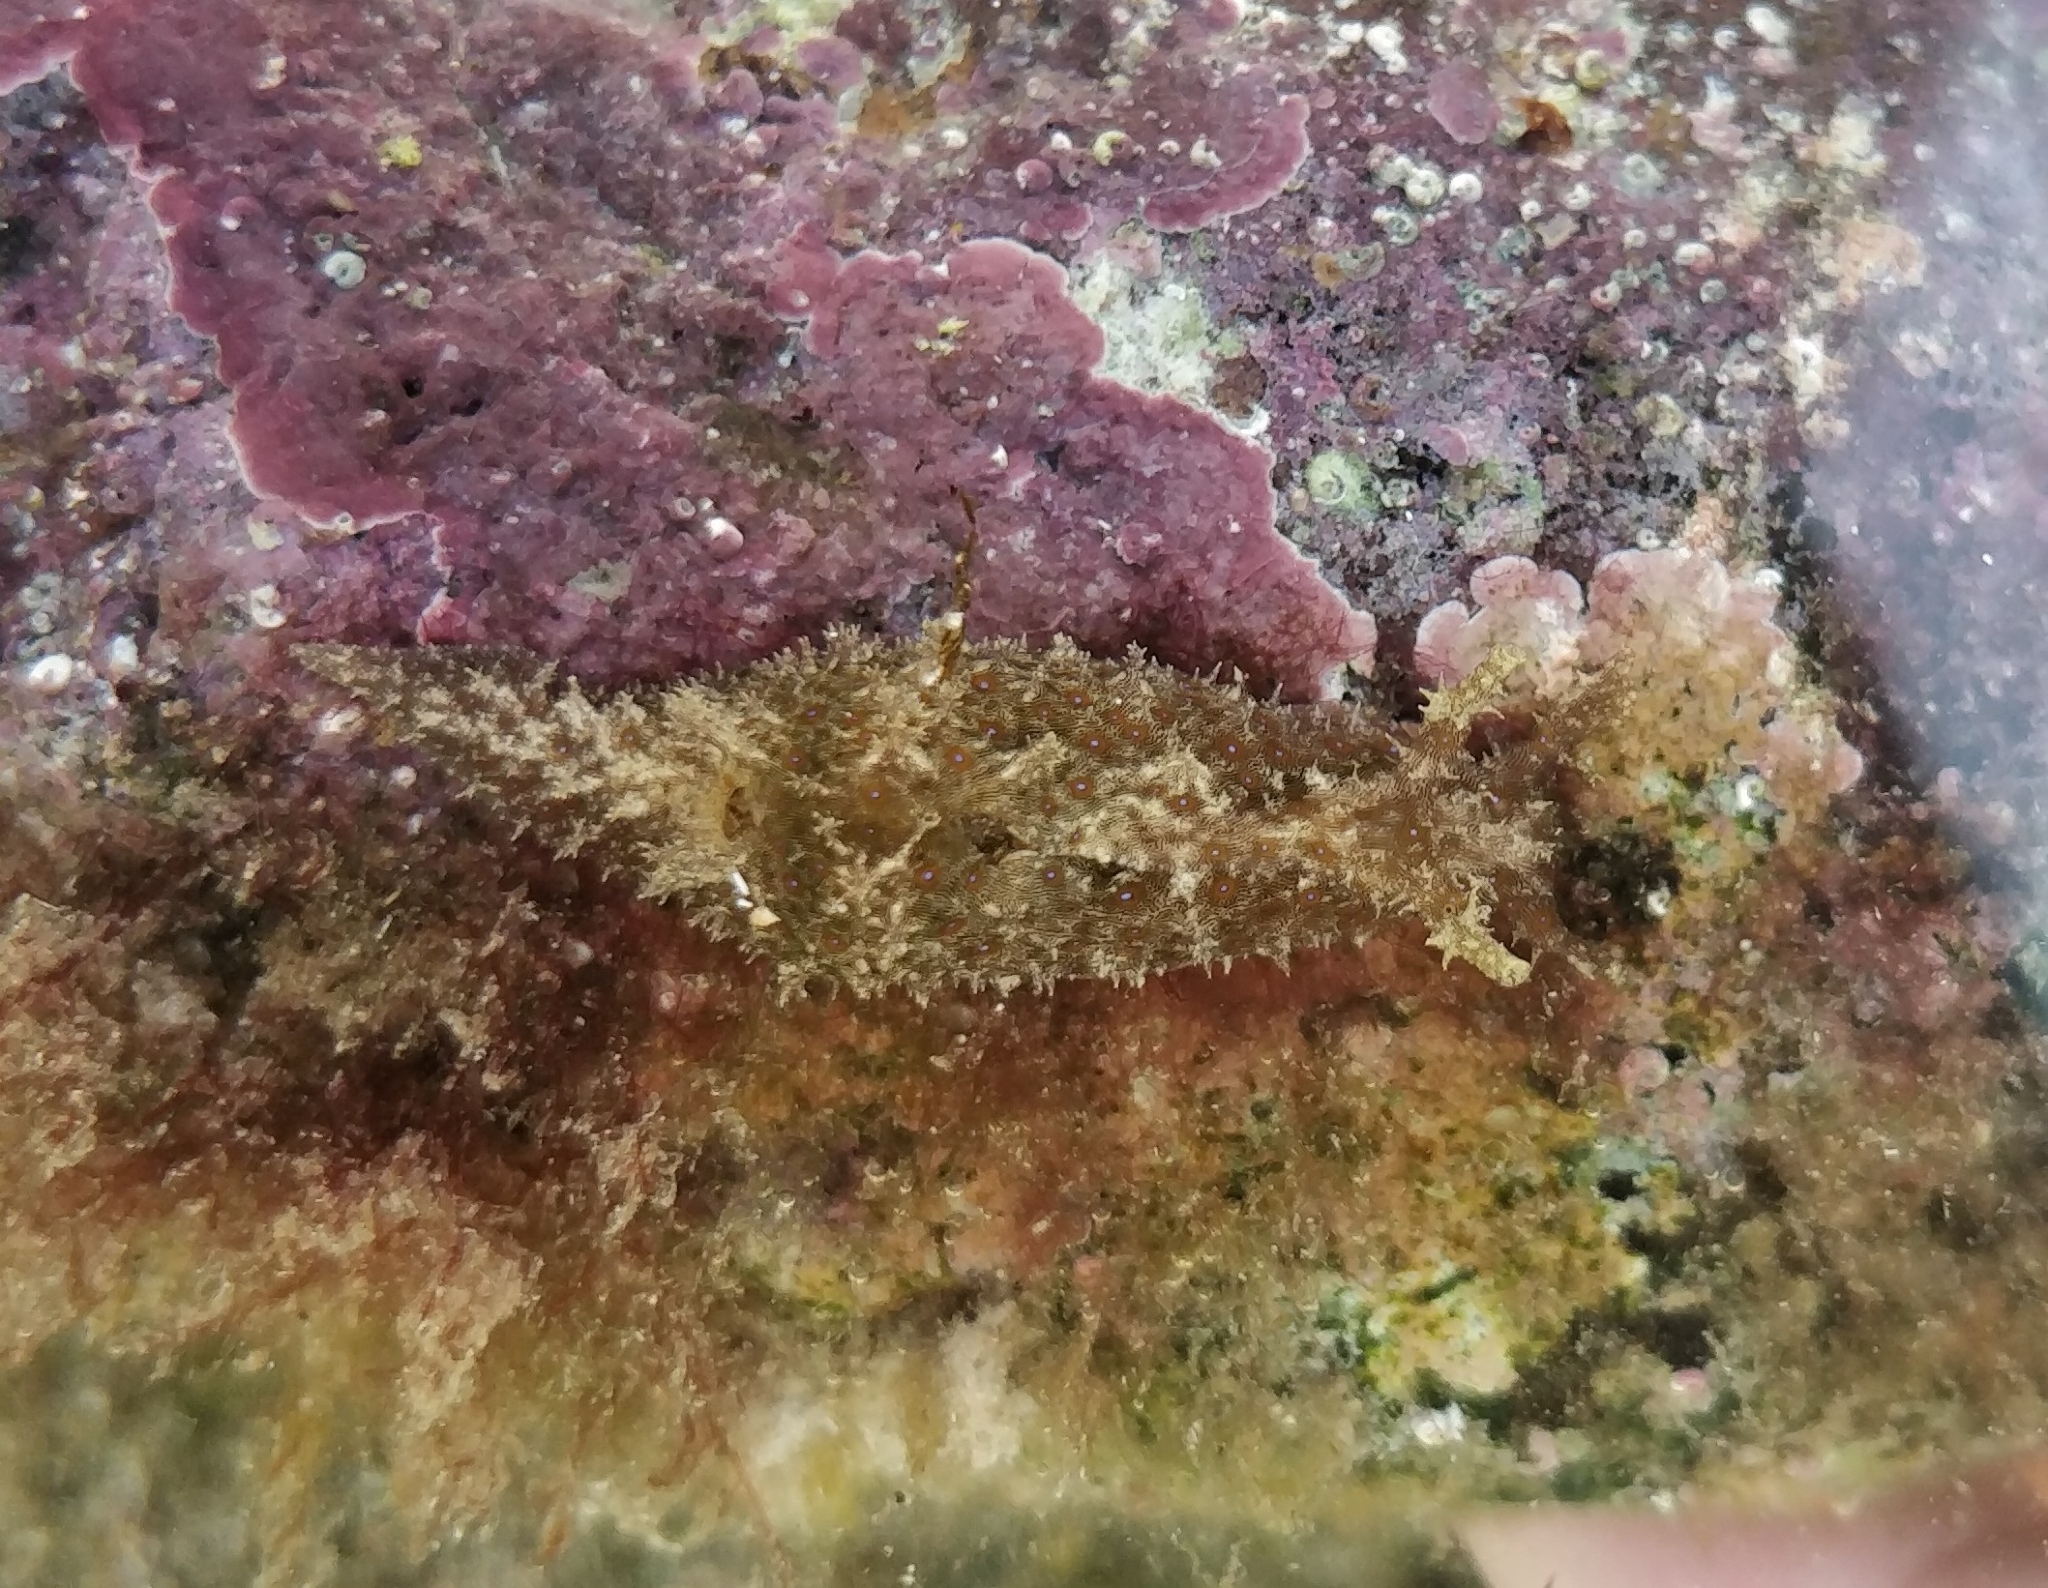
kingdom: Animalia
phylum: Mollusca
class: Gastropoda
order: Aplysiida
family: Aplysiidae
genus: Stylocheilus
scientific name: Stylocheilus polyomma
